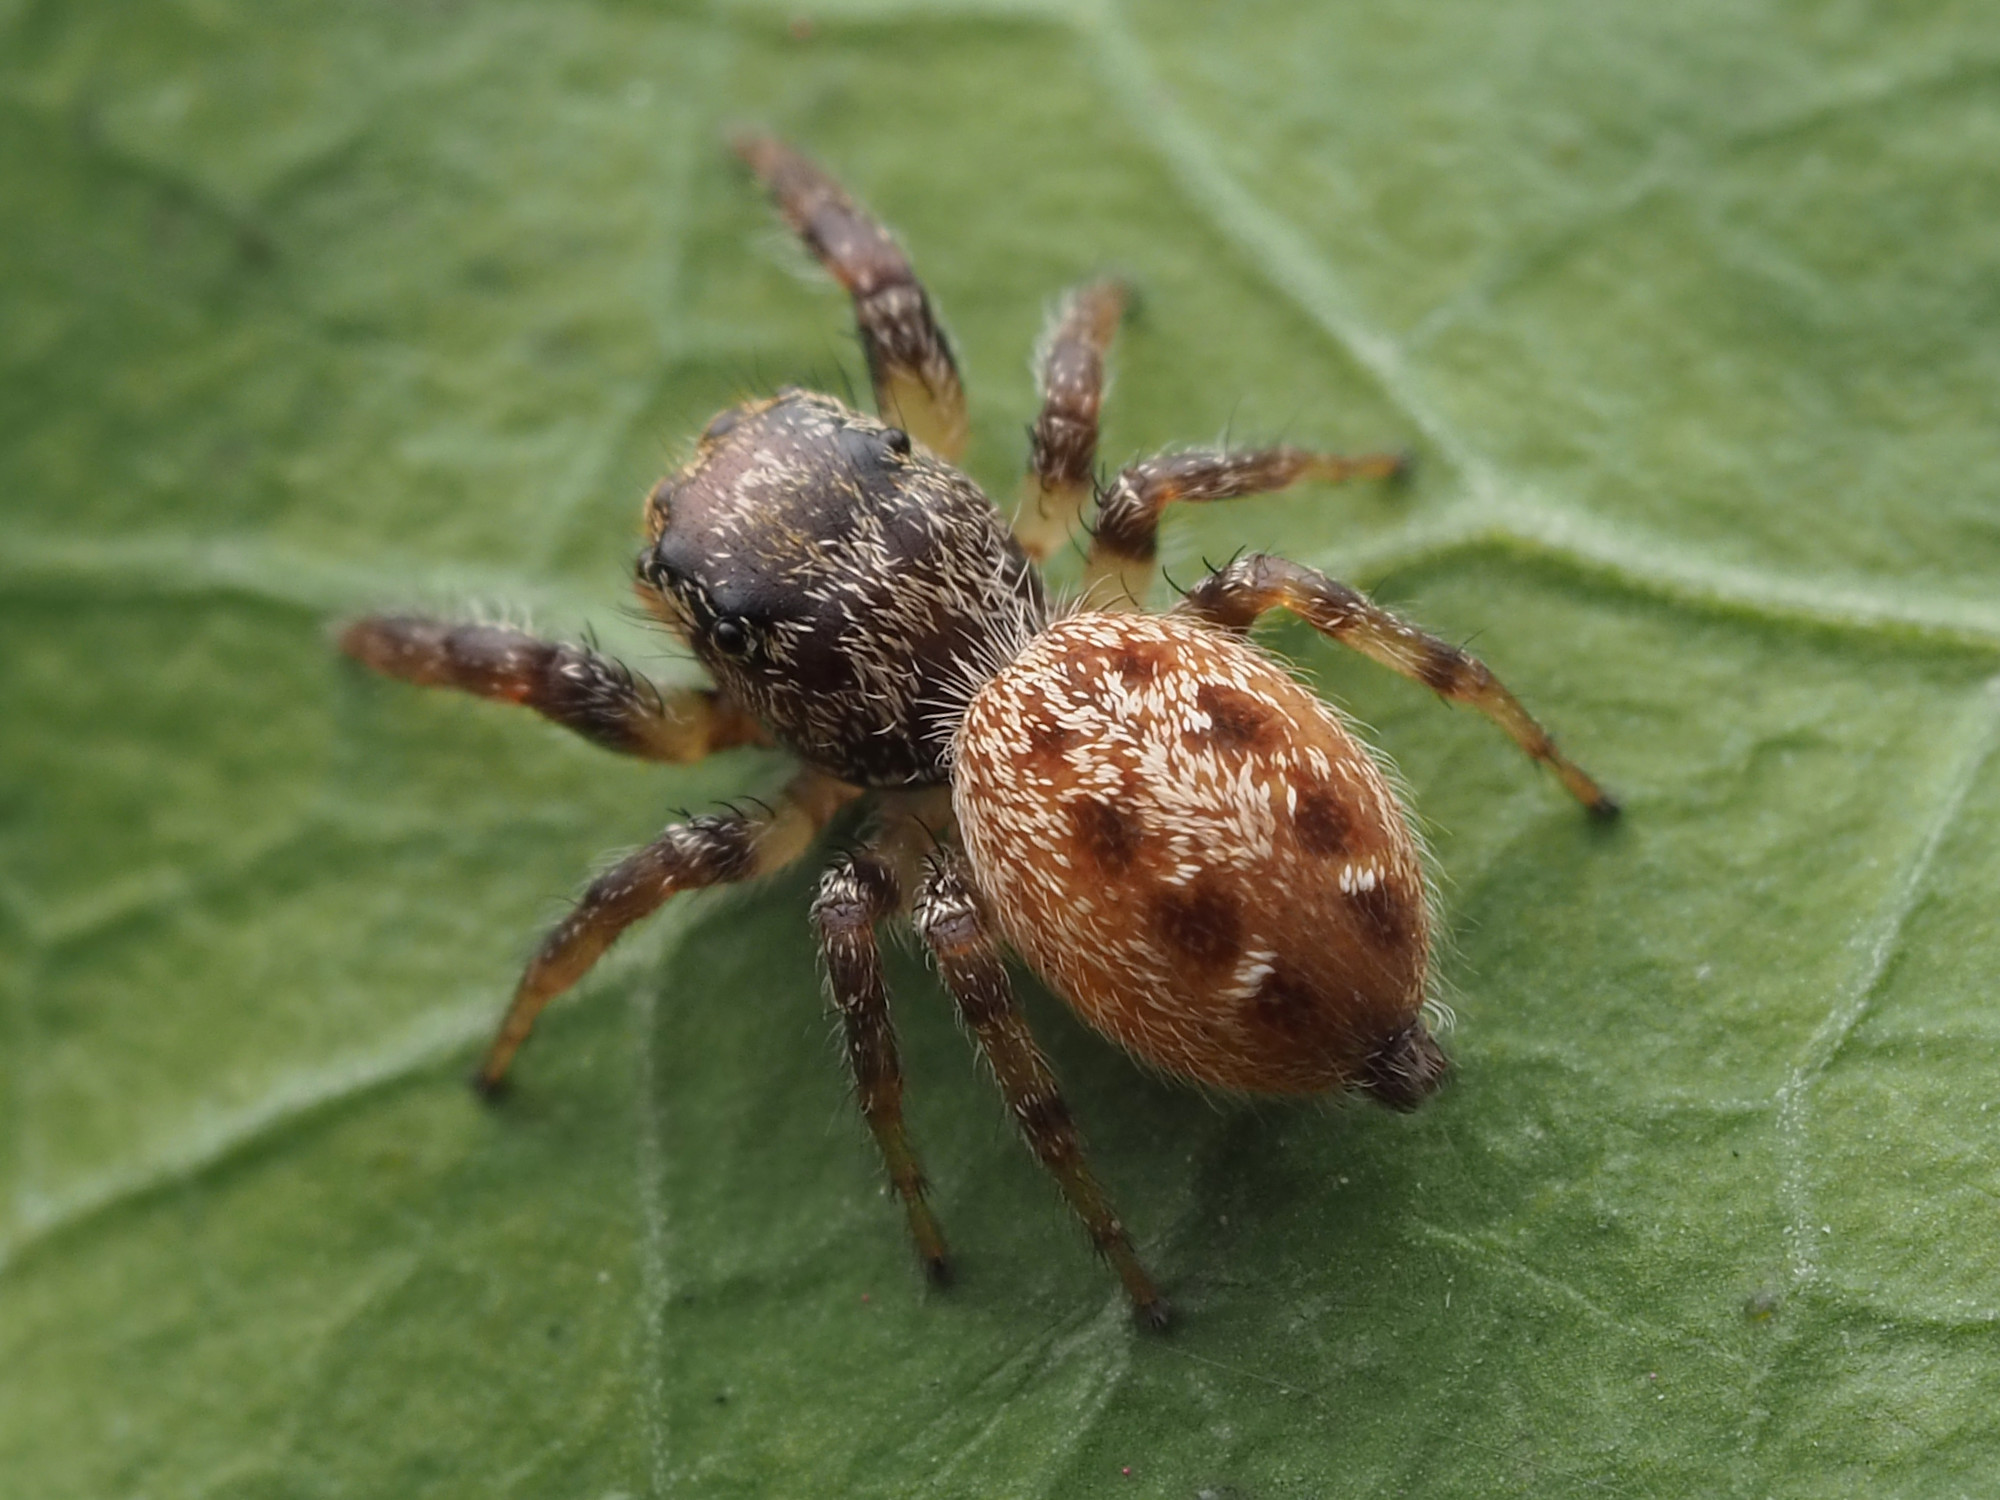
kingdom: Animalia
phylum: Arthropoda
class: Arachnida
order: Araneae
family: Salticidae
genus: Eris
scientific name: Eris flava
